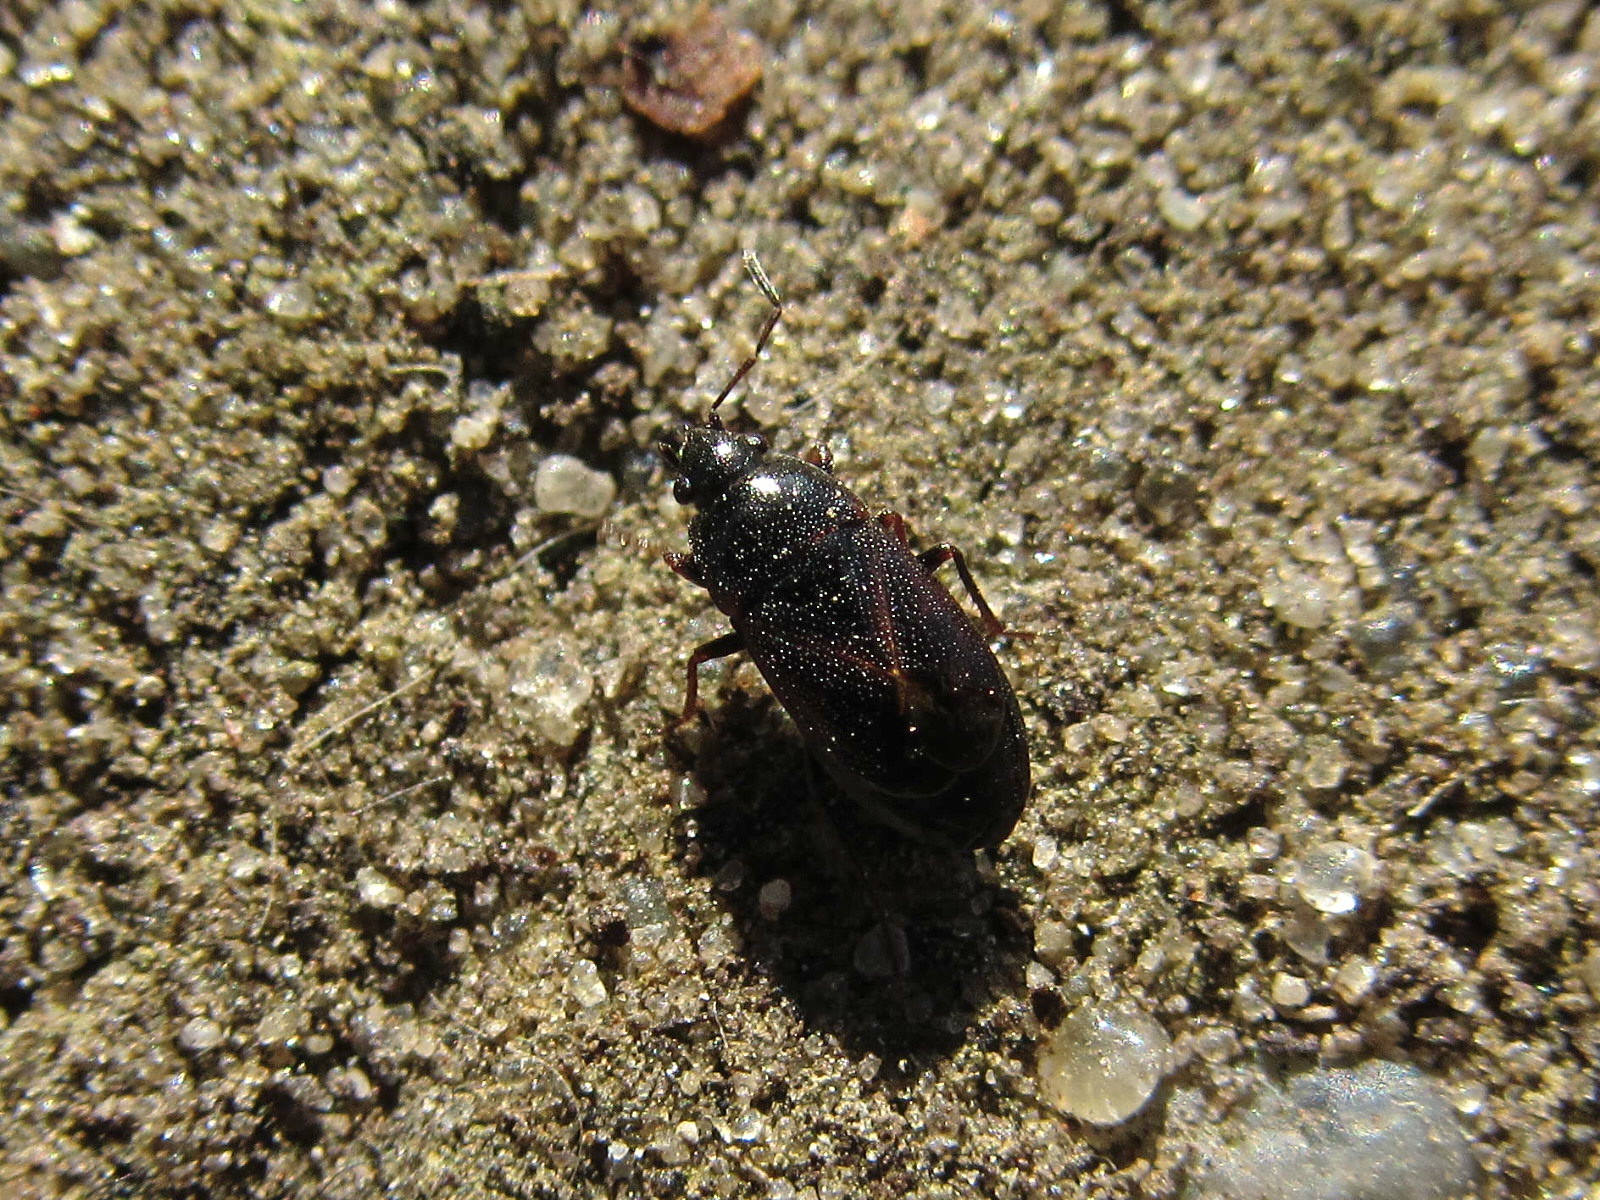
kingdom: Animalia
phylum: Arthropoda
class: Insecta
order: Hemiptera
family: Rhyparochromidae
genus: Lamprodema
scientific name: Lamprodema maura
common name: Seed bug
